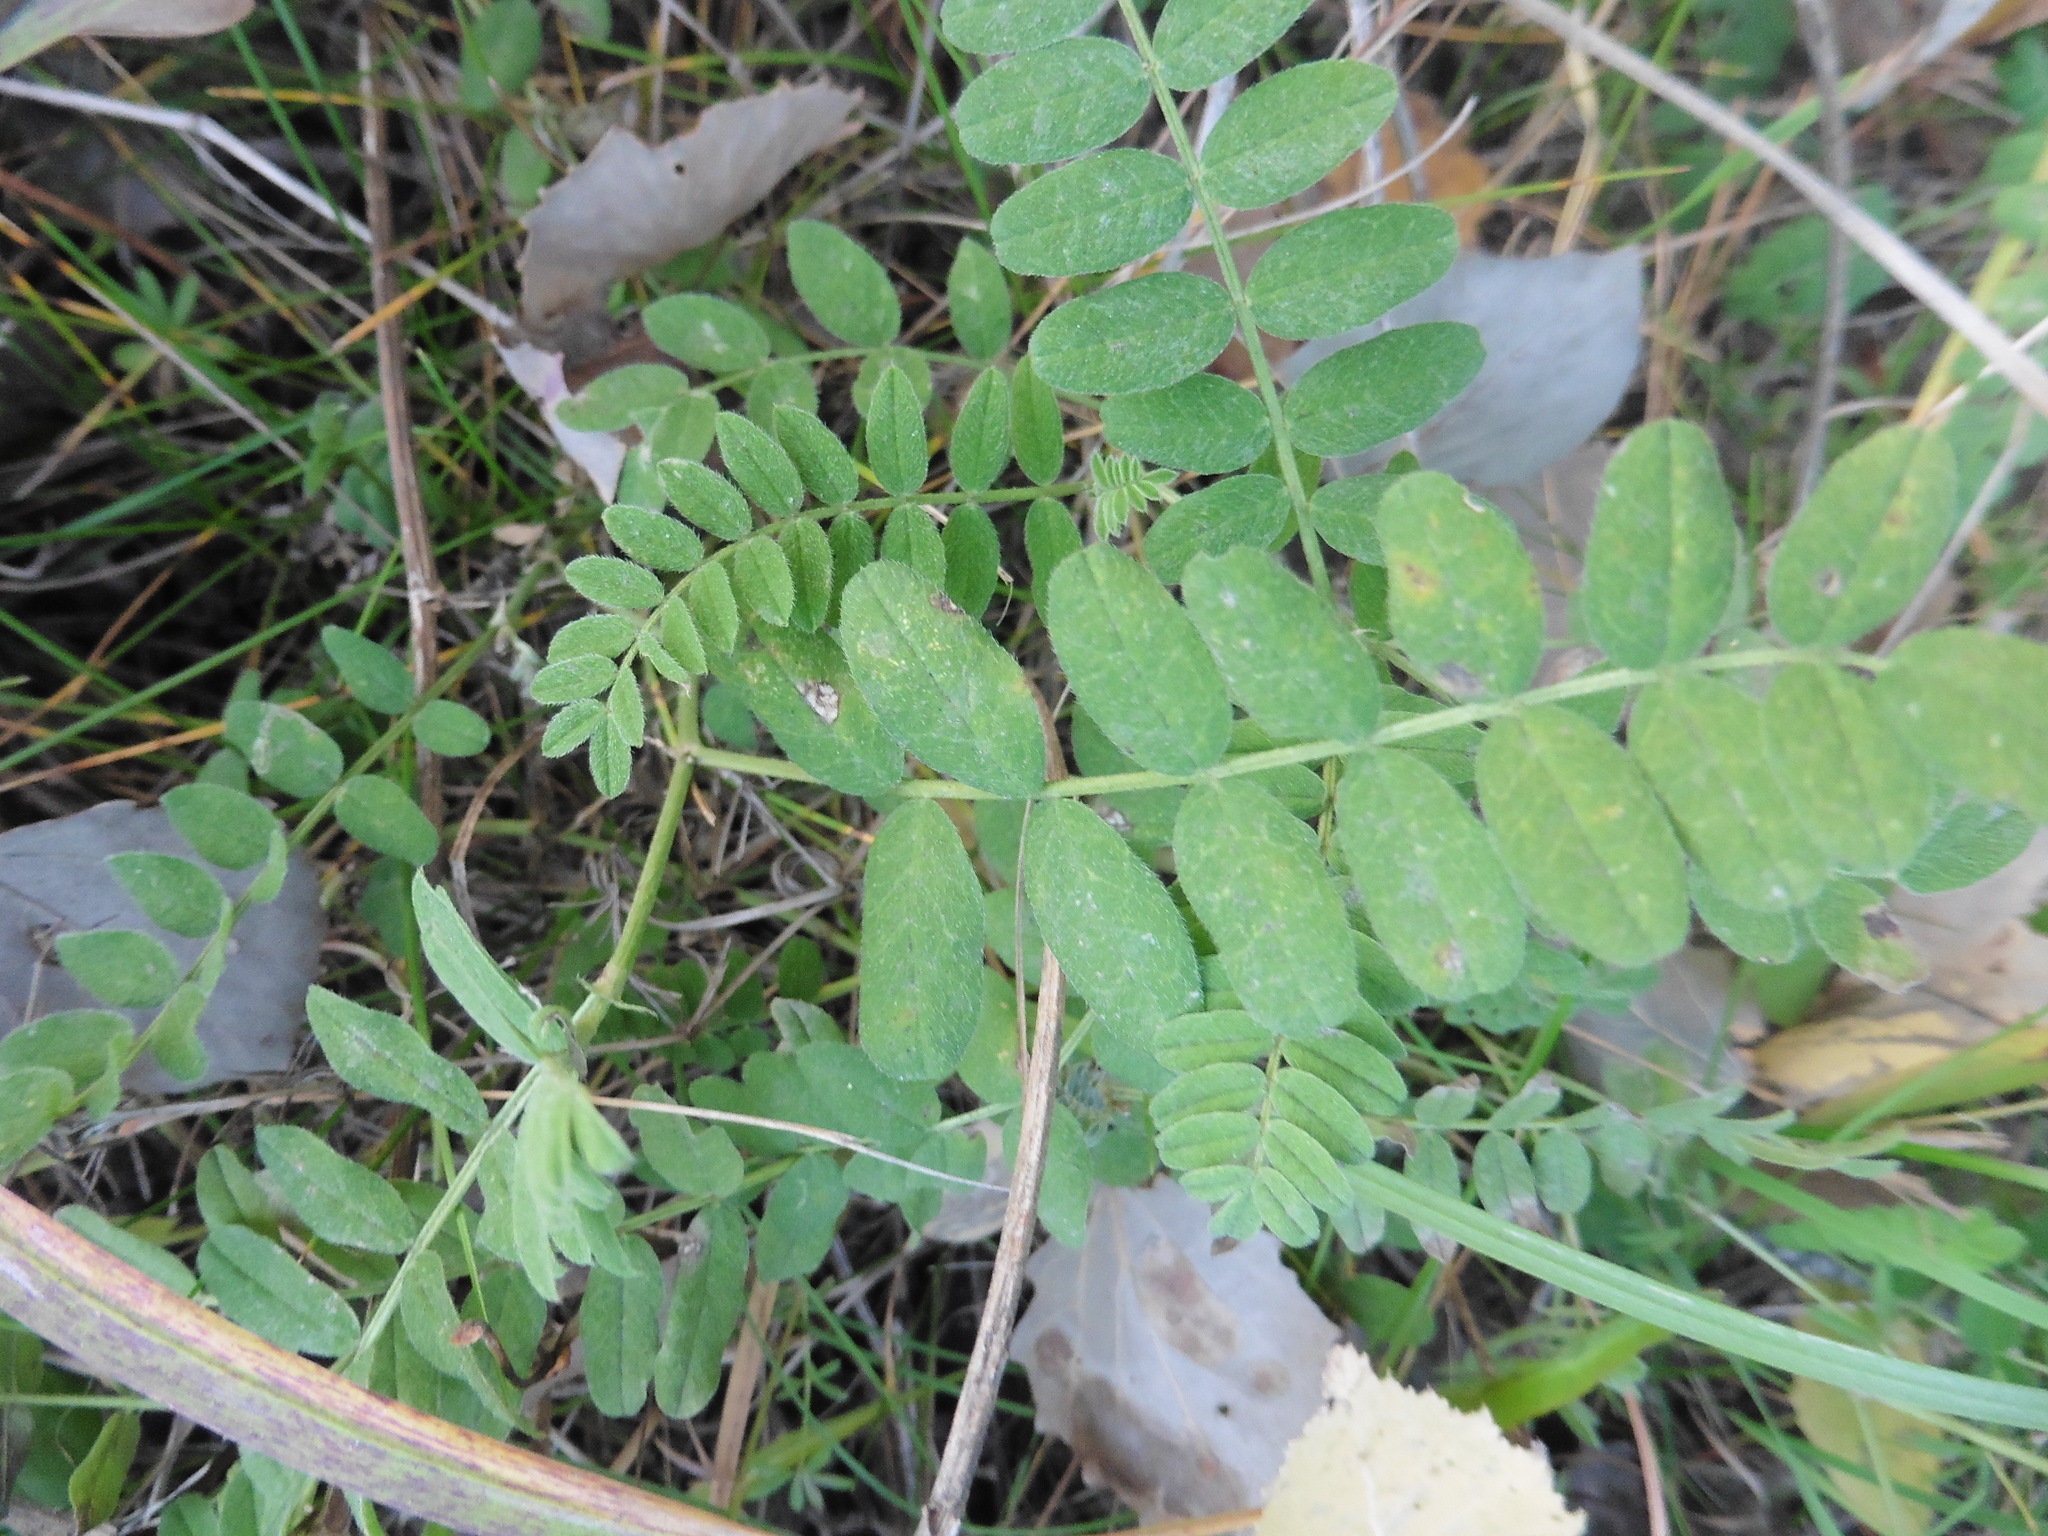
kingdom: Plantae
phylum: Tracheophyta
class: Magnoliopsida
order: Fabales
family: Fabaceae
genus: Astragalus
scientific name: Astragalus cicer
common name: Chick-pea milk-vetch
